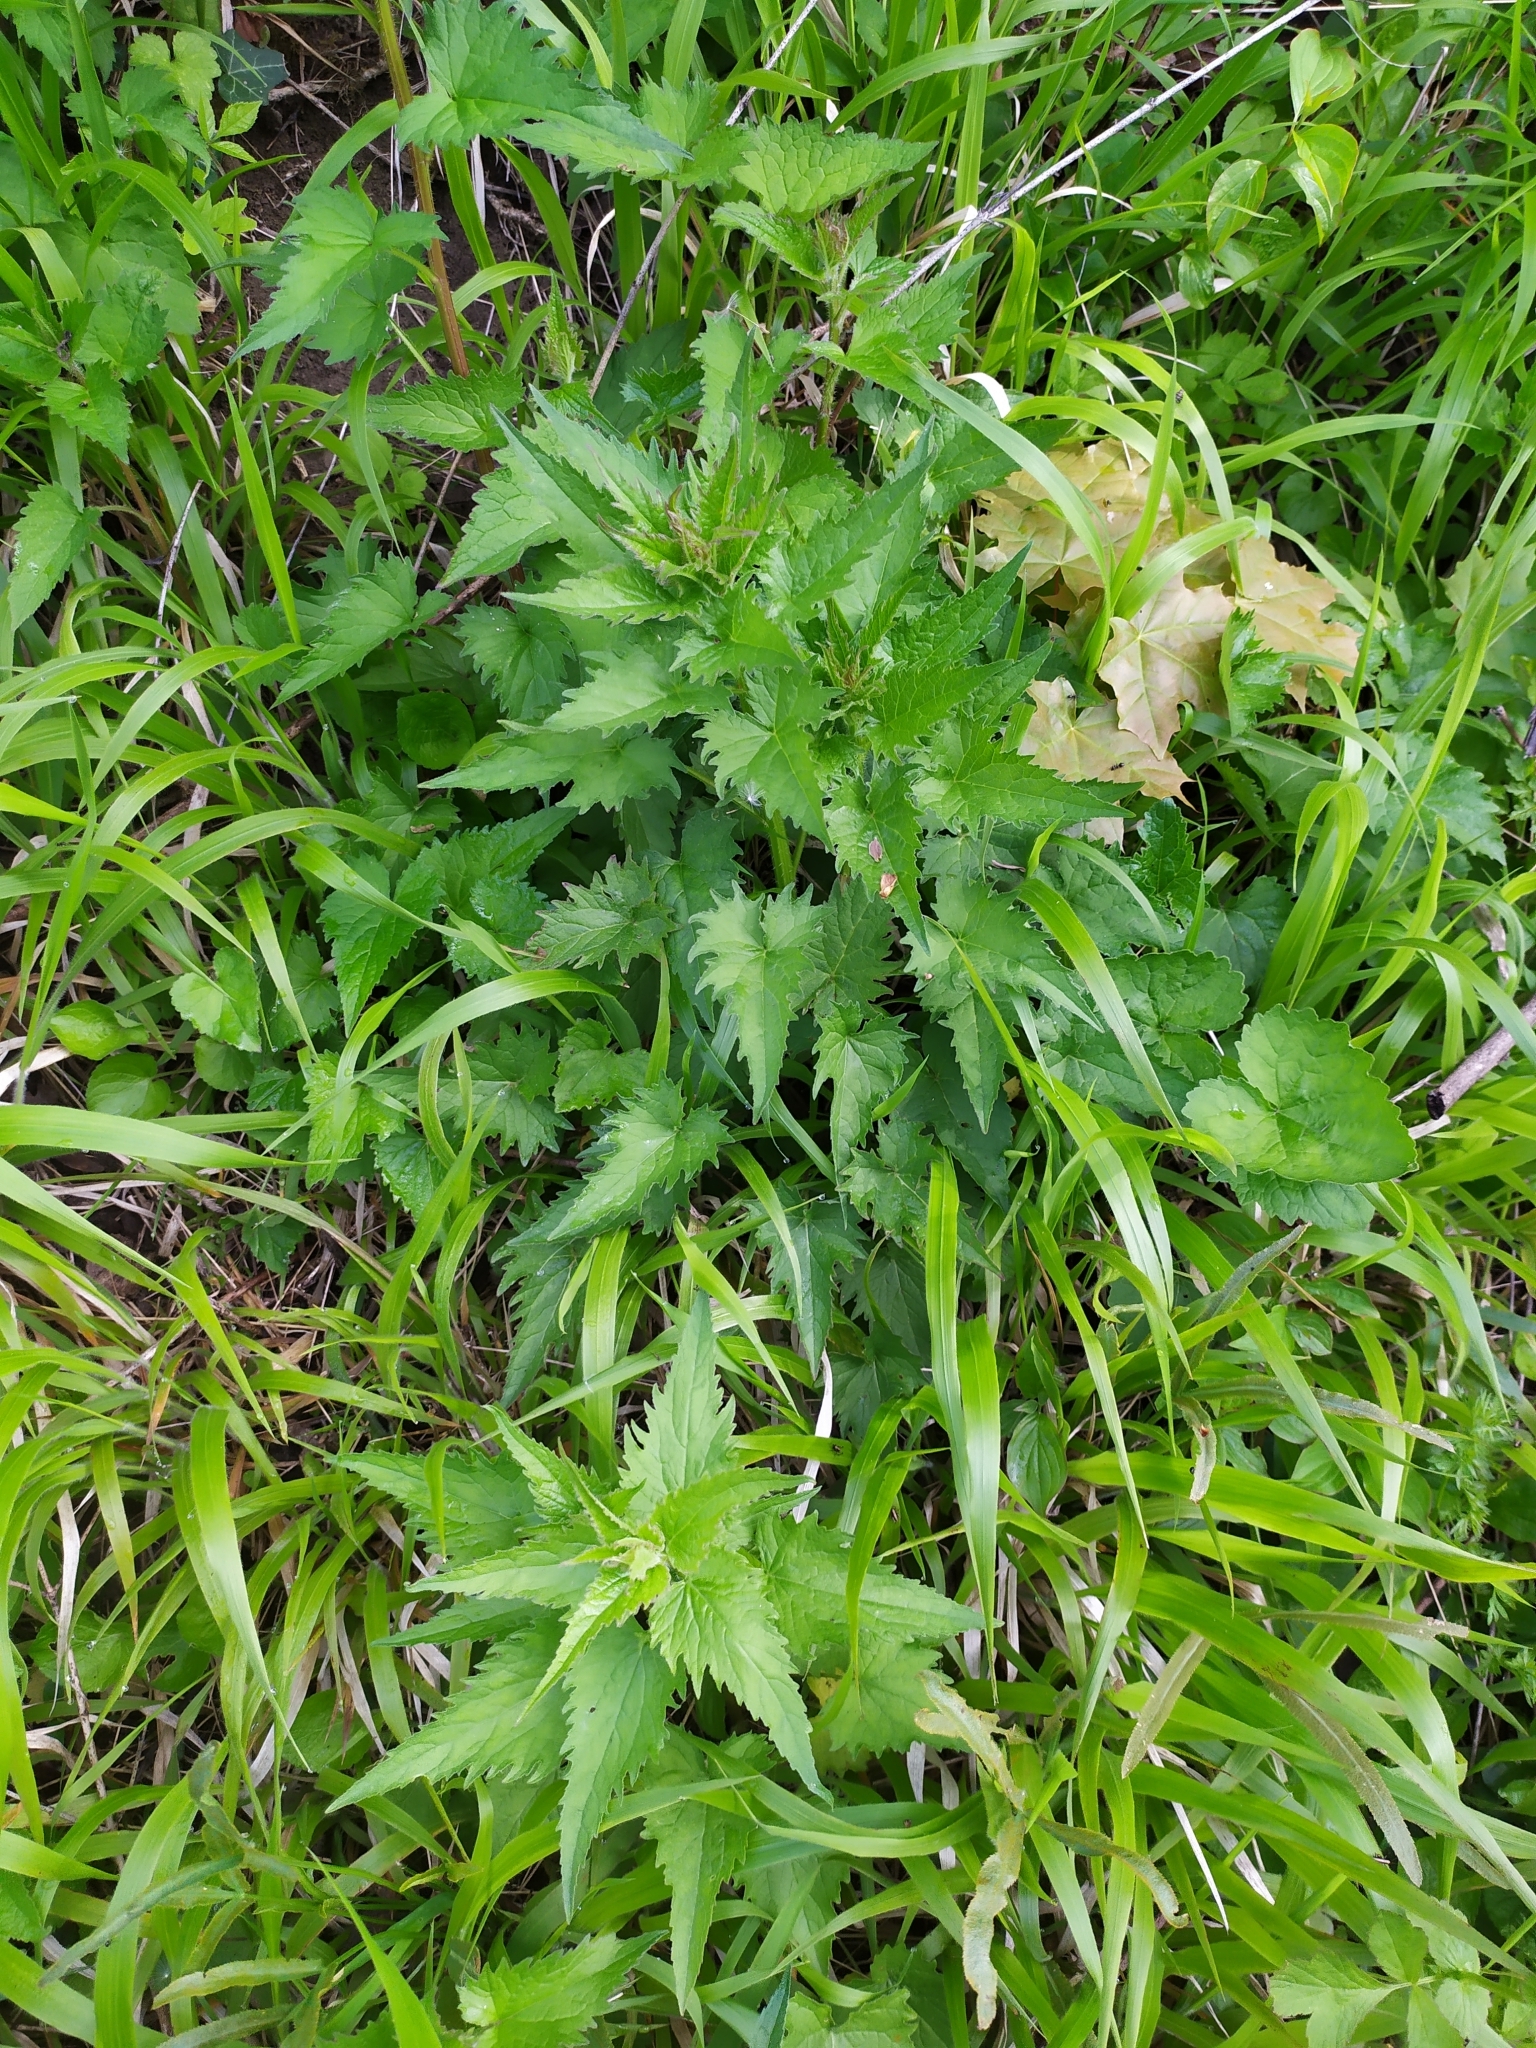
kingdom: Plantae
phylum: Tracheophyta
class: Magnoliopsida
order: Asterales
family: Campanulaceae
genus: Campanula
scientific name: Campanula trachelium
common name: Nettle-leaved bellflower
